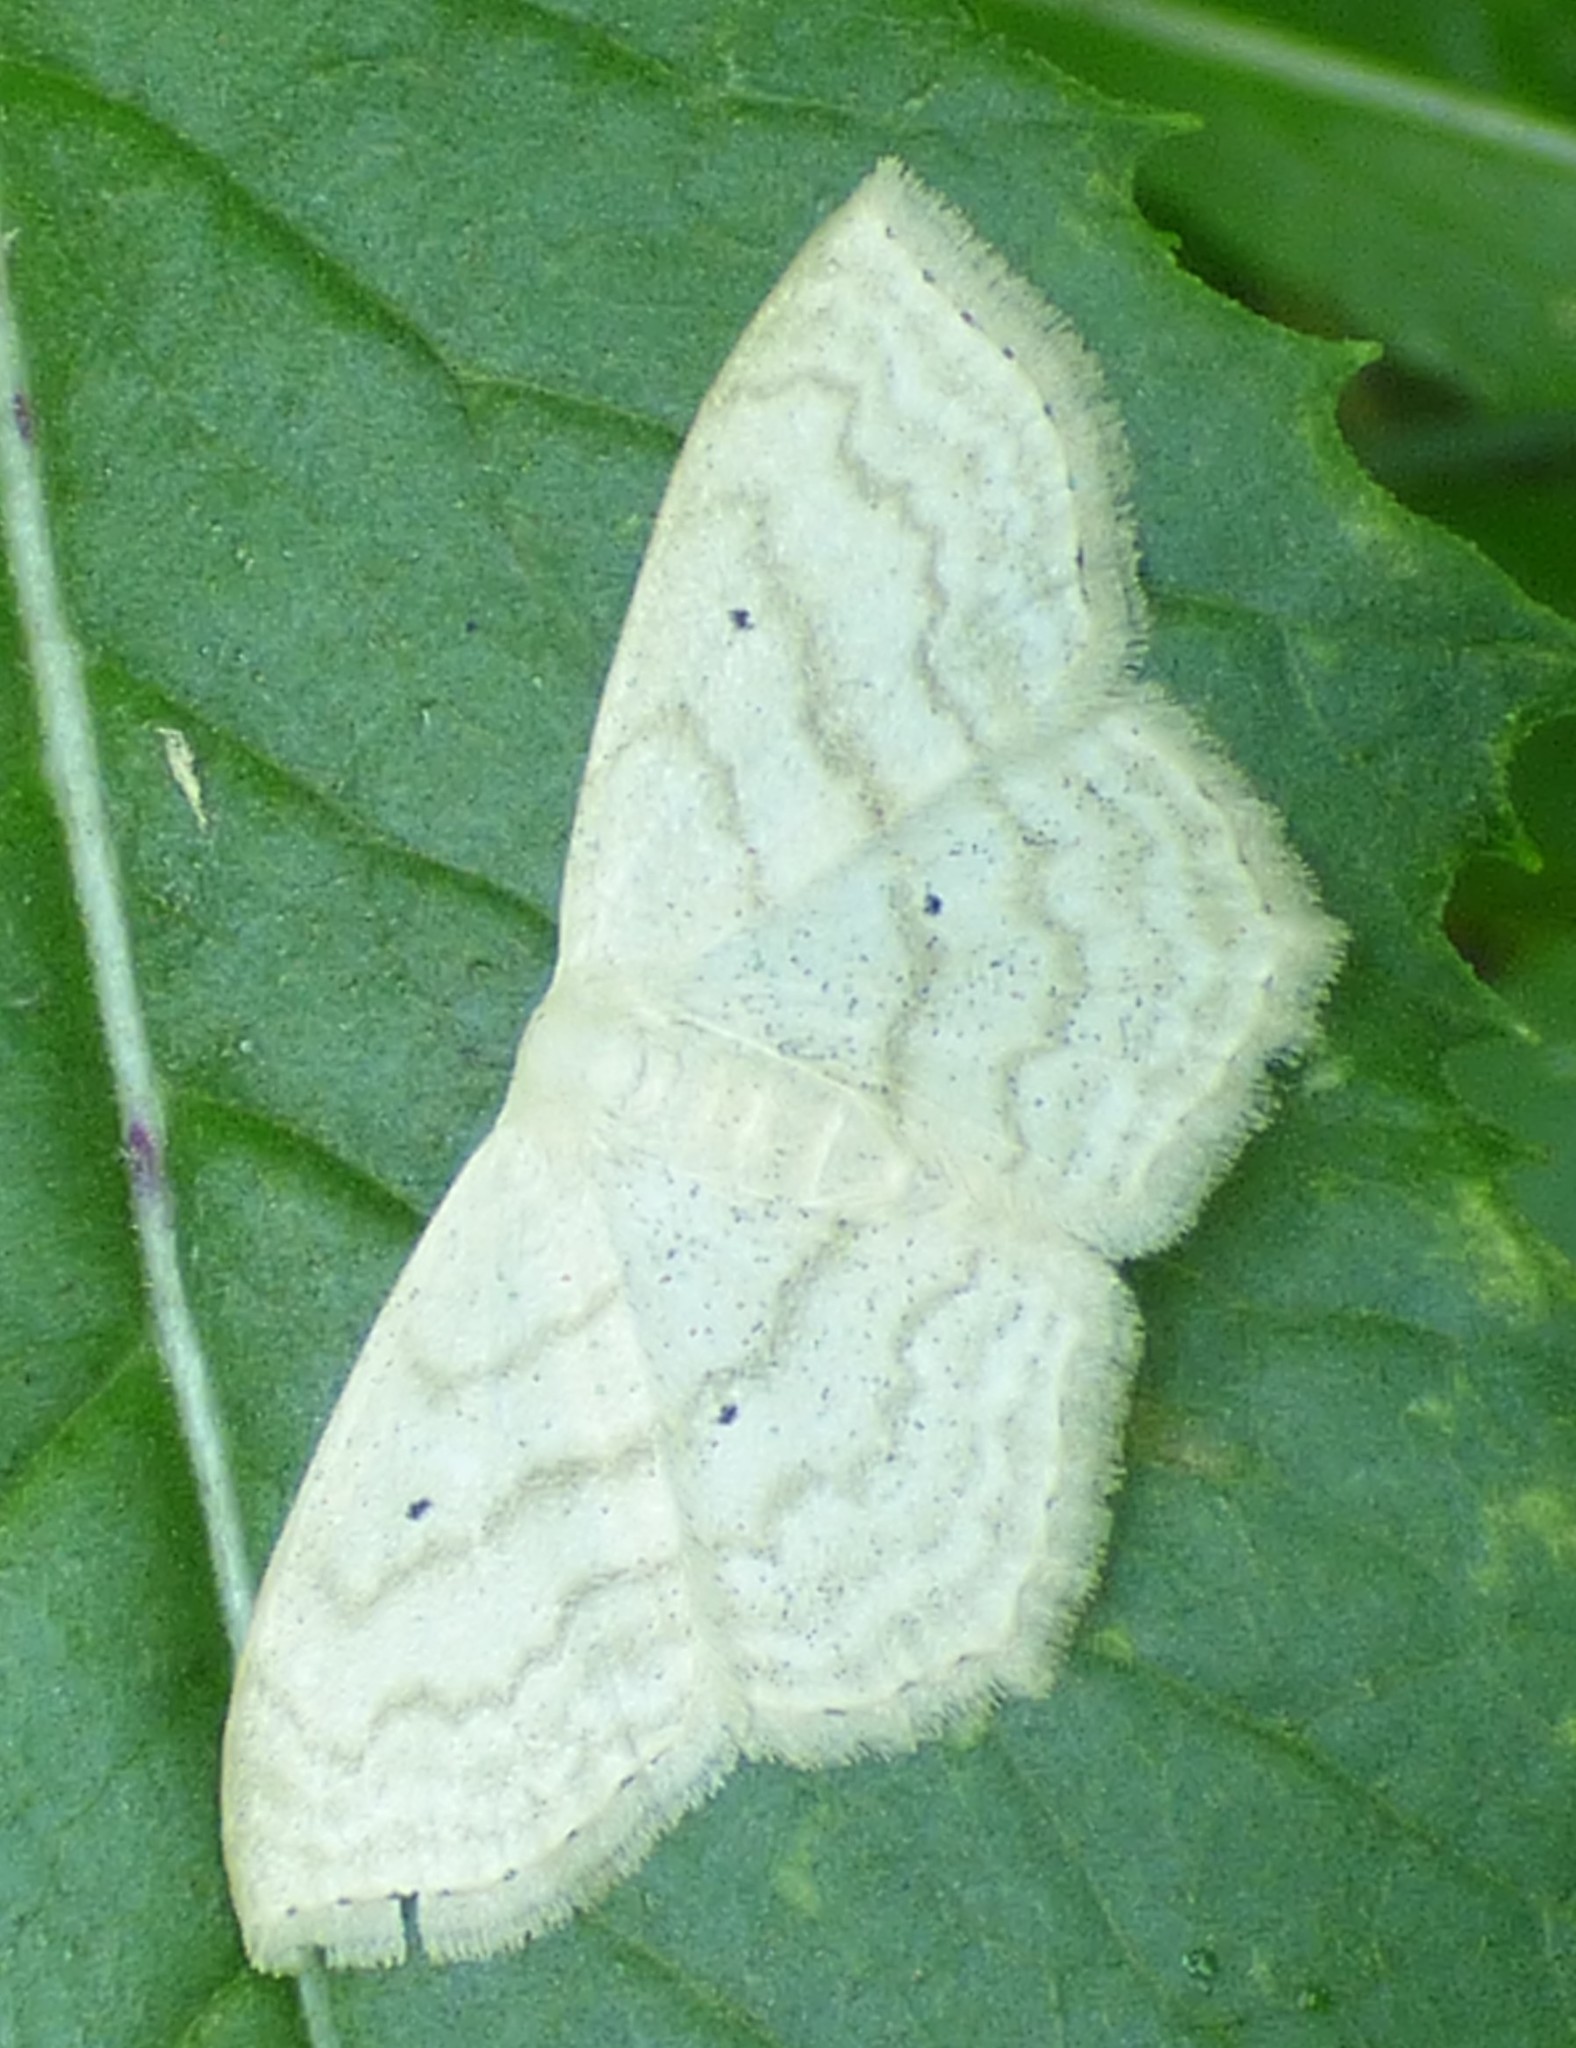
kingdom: Animalia
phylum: Arthropoda
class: Insecta
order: Lepidoptera
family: Geometridae
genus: Scopula
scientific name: Scopula limboundata
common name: Large lace border
